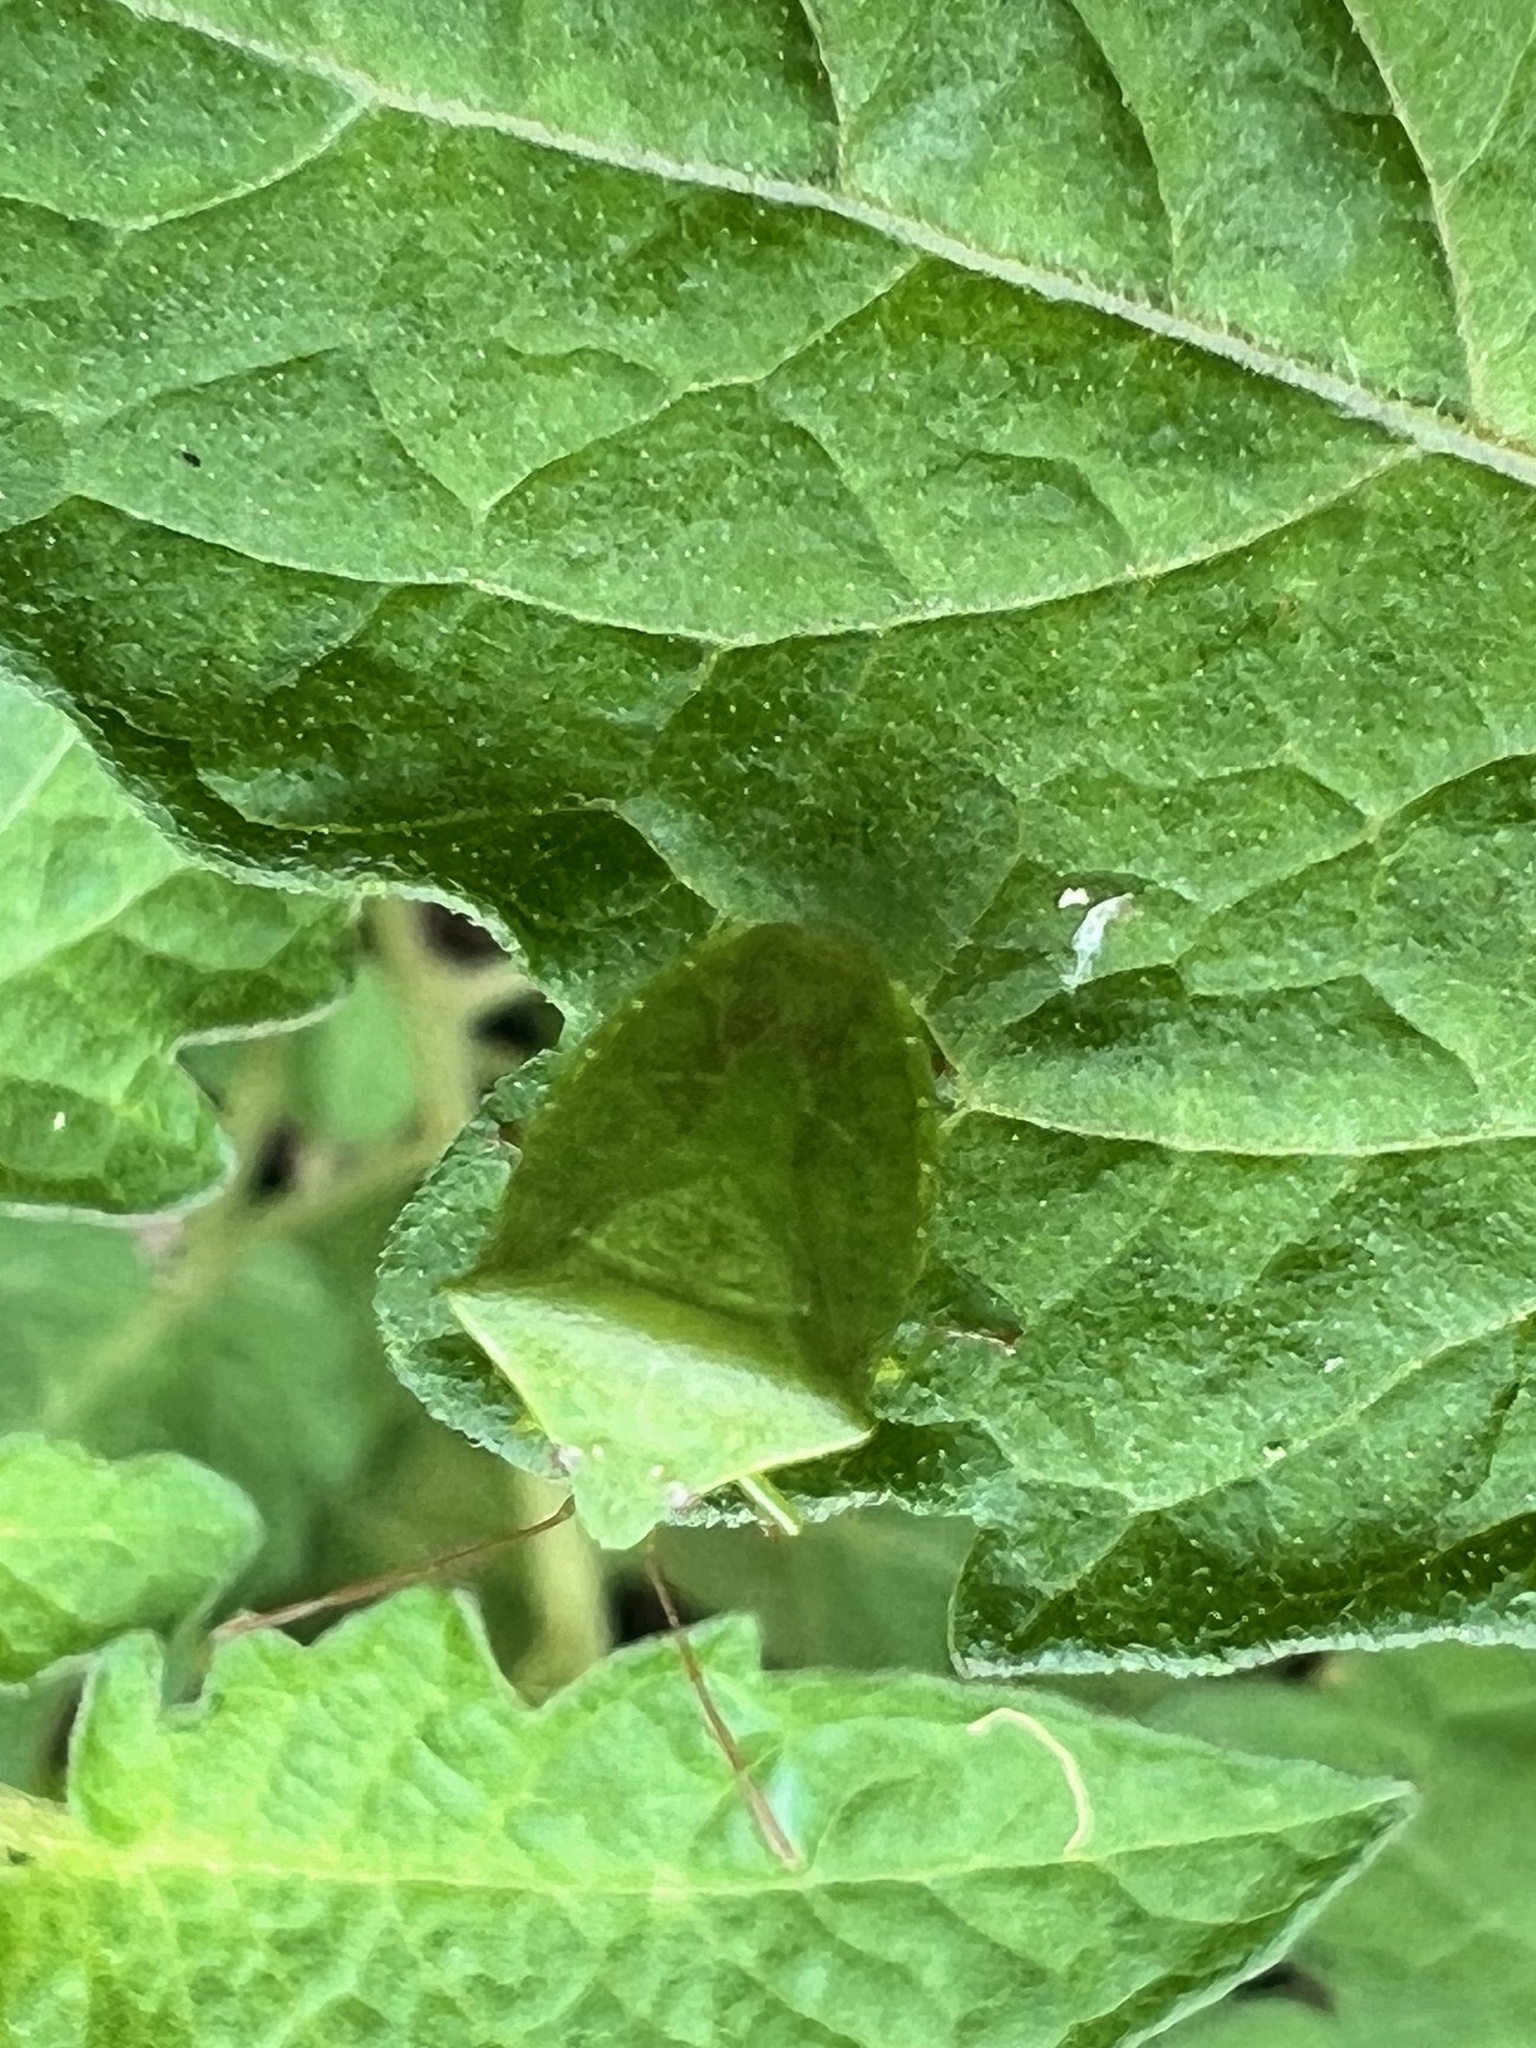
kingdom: Animalia
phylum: Arthropoda
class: Insecta
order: Hemiptera
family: Pentatomidae
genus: Cuspicona
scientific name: Cuspicona simplex
